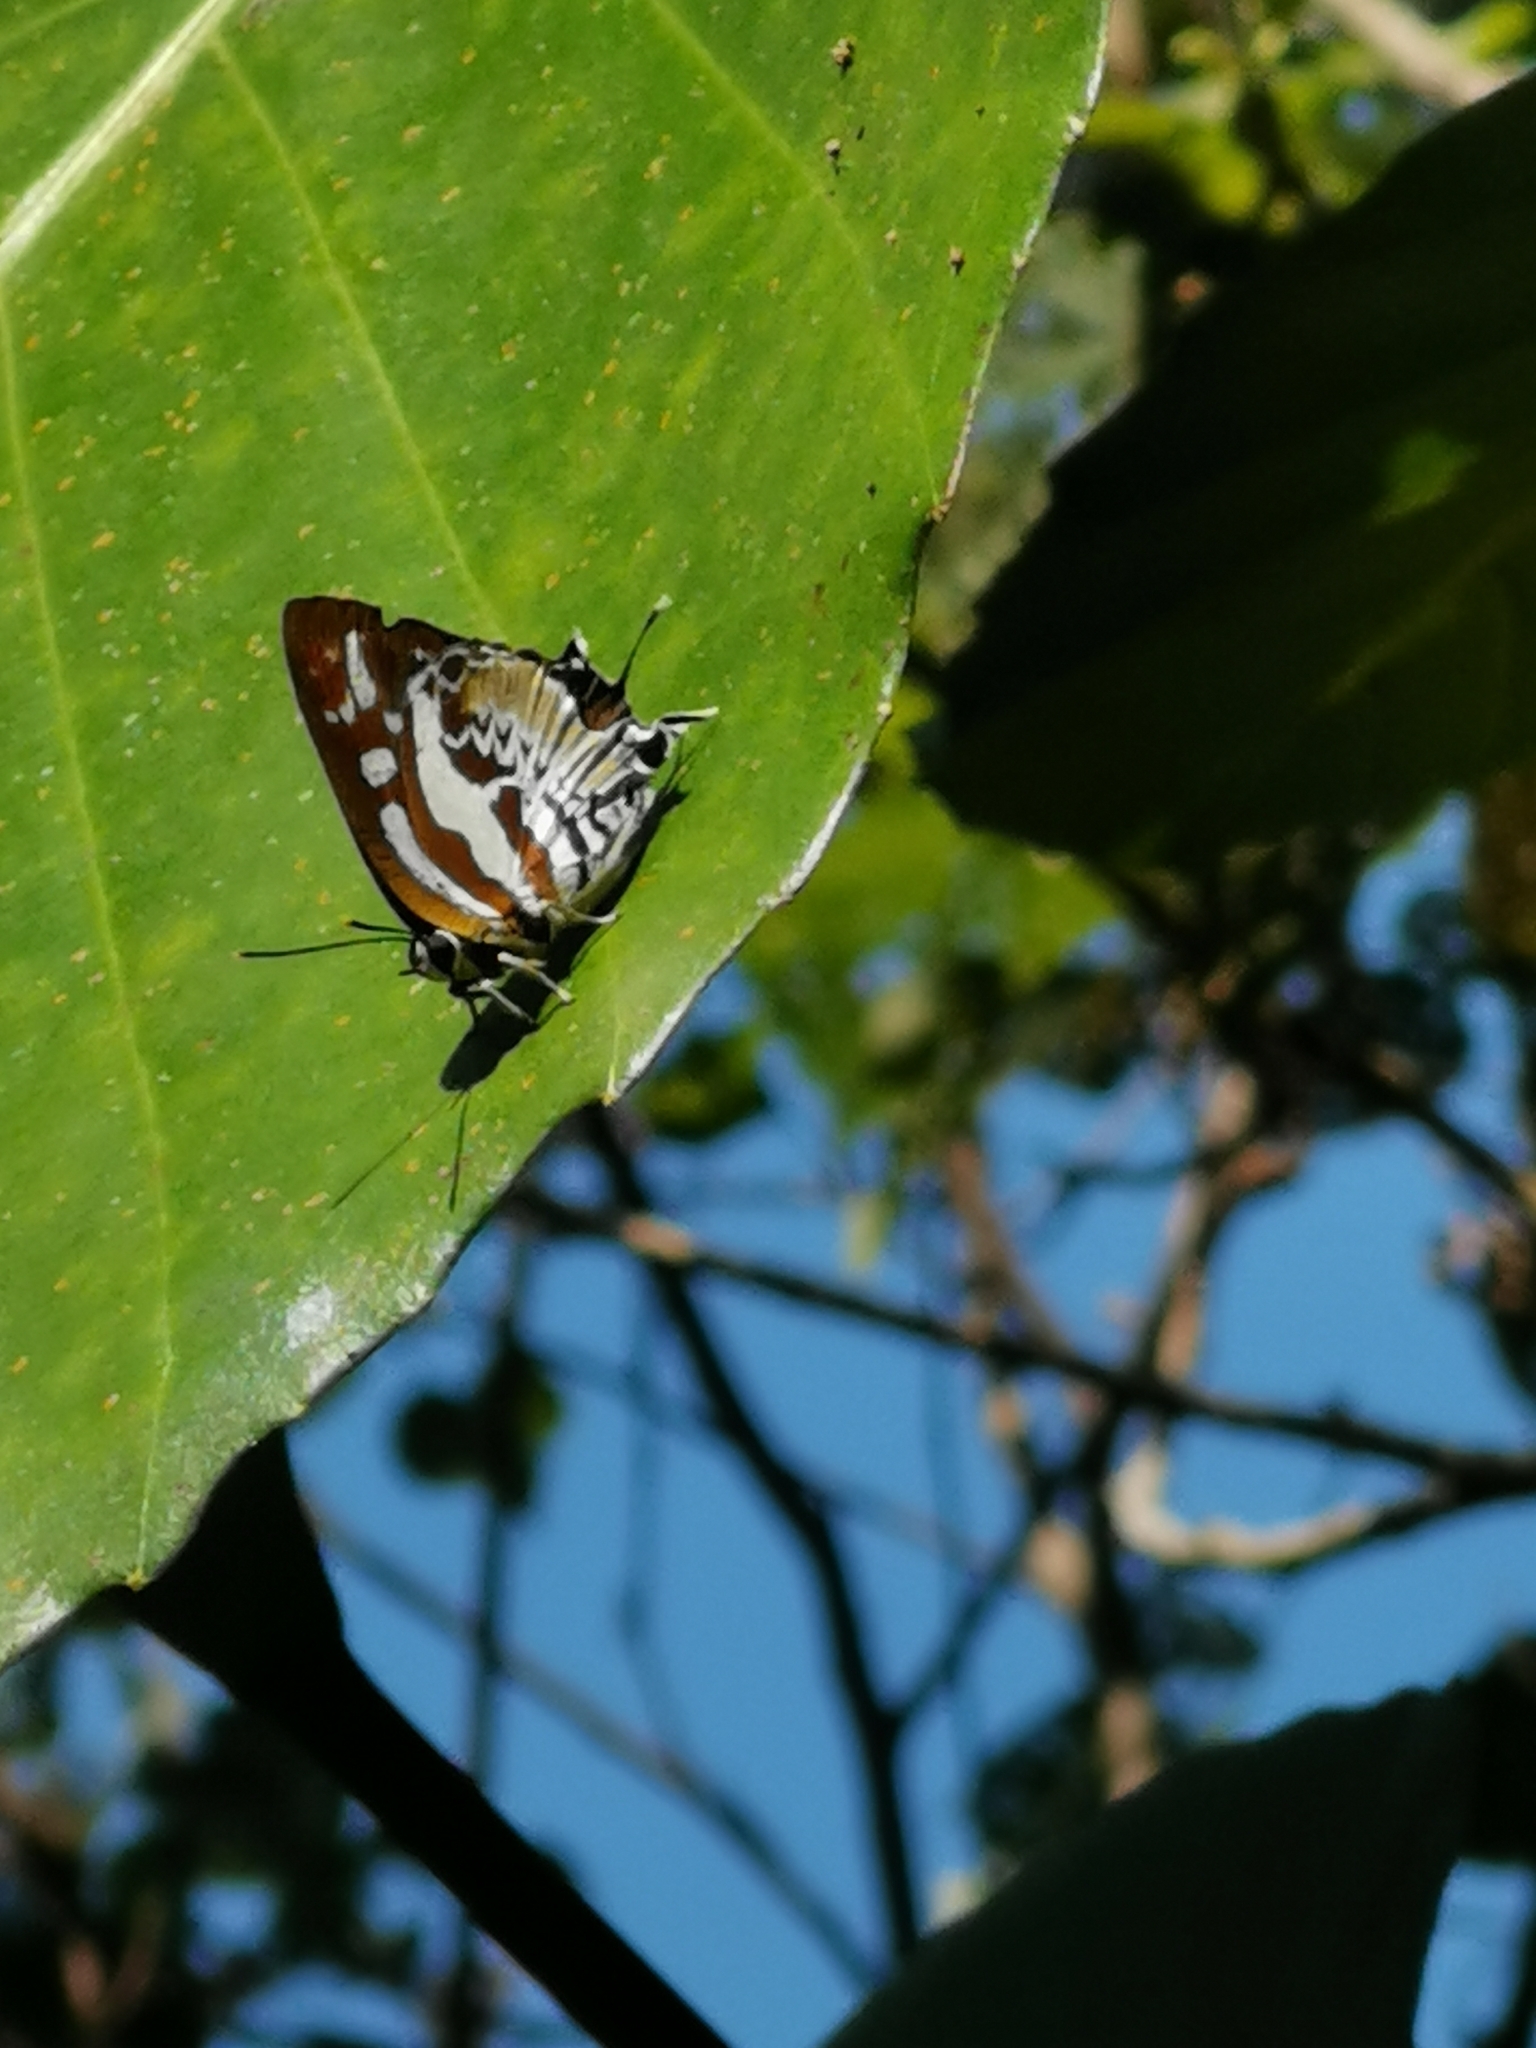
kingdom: Animalia
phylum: Arthropoda
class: Insecta
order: Lepidoptera
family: Lycaenidae
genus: Iraota
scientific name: Iraota rochana
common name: Scarce silverstreak blue
